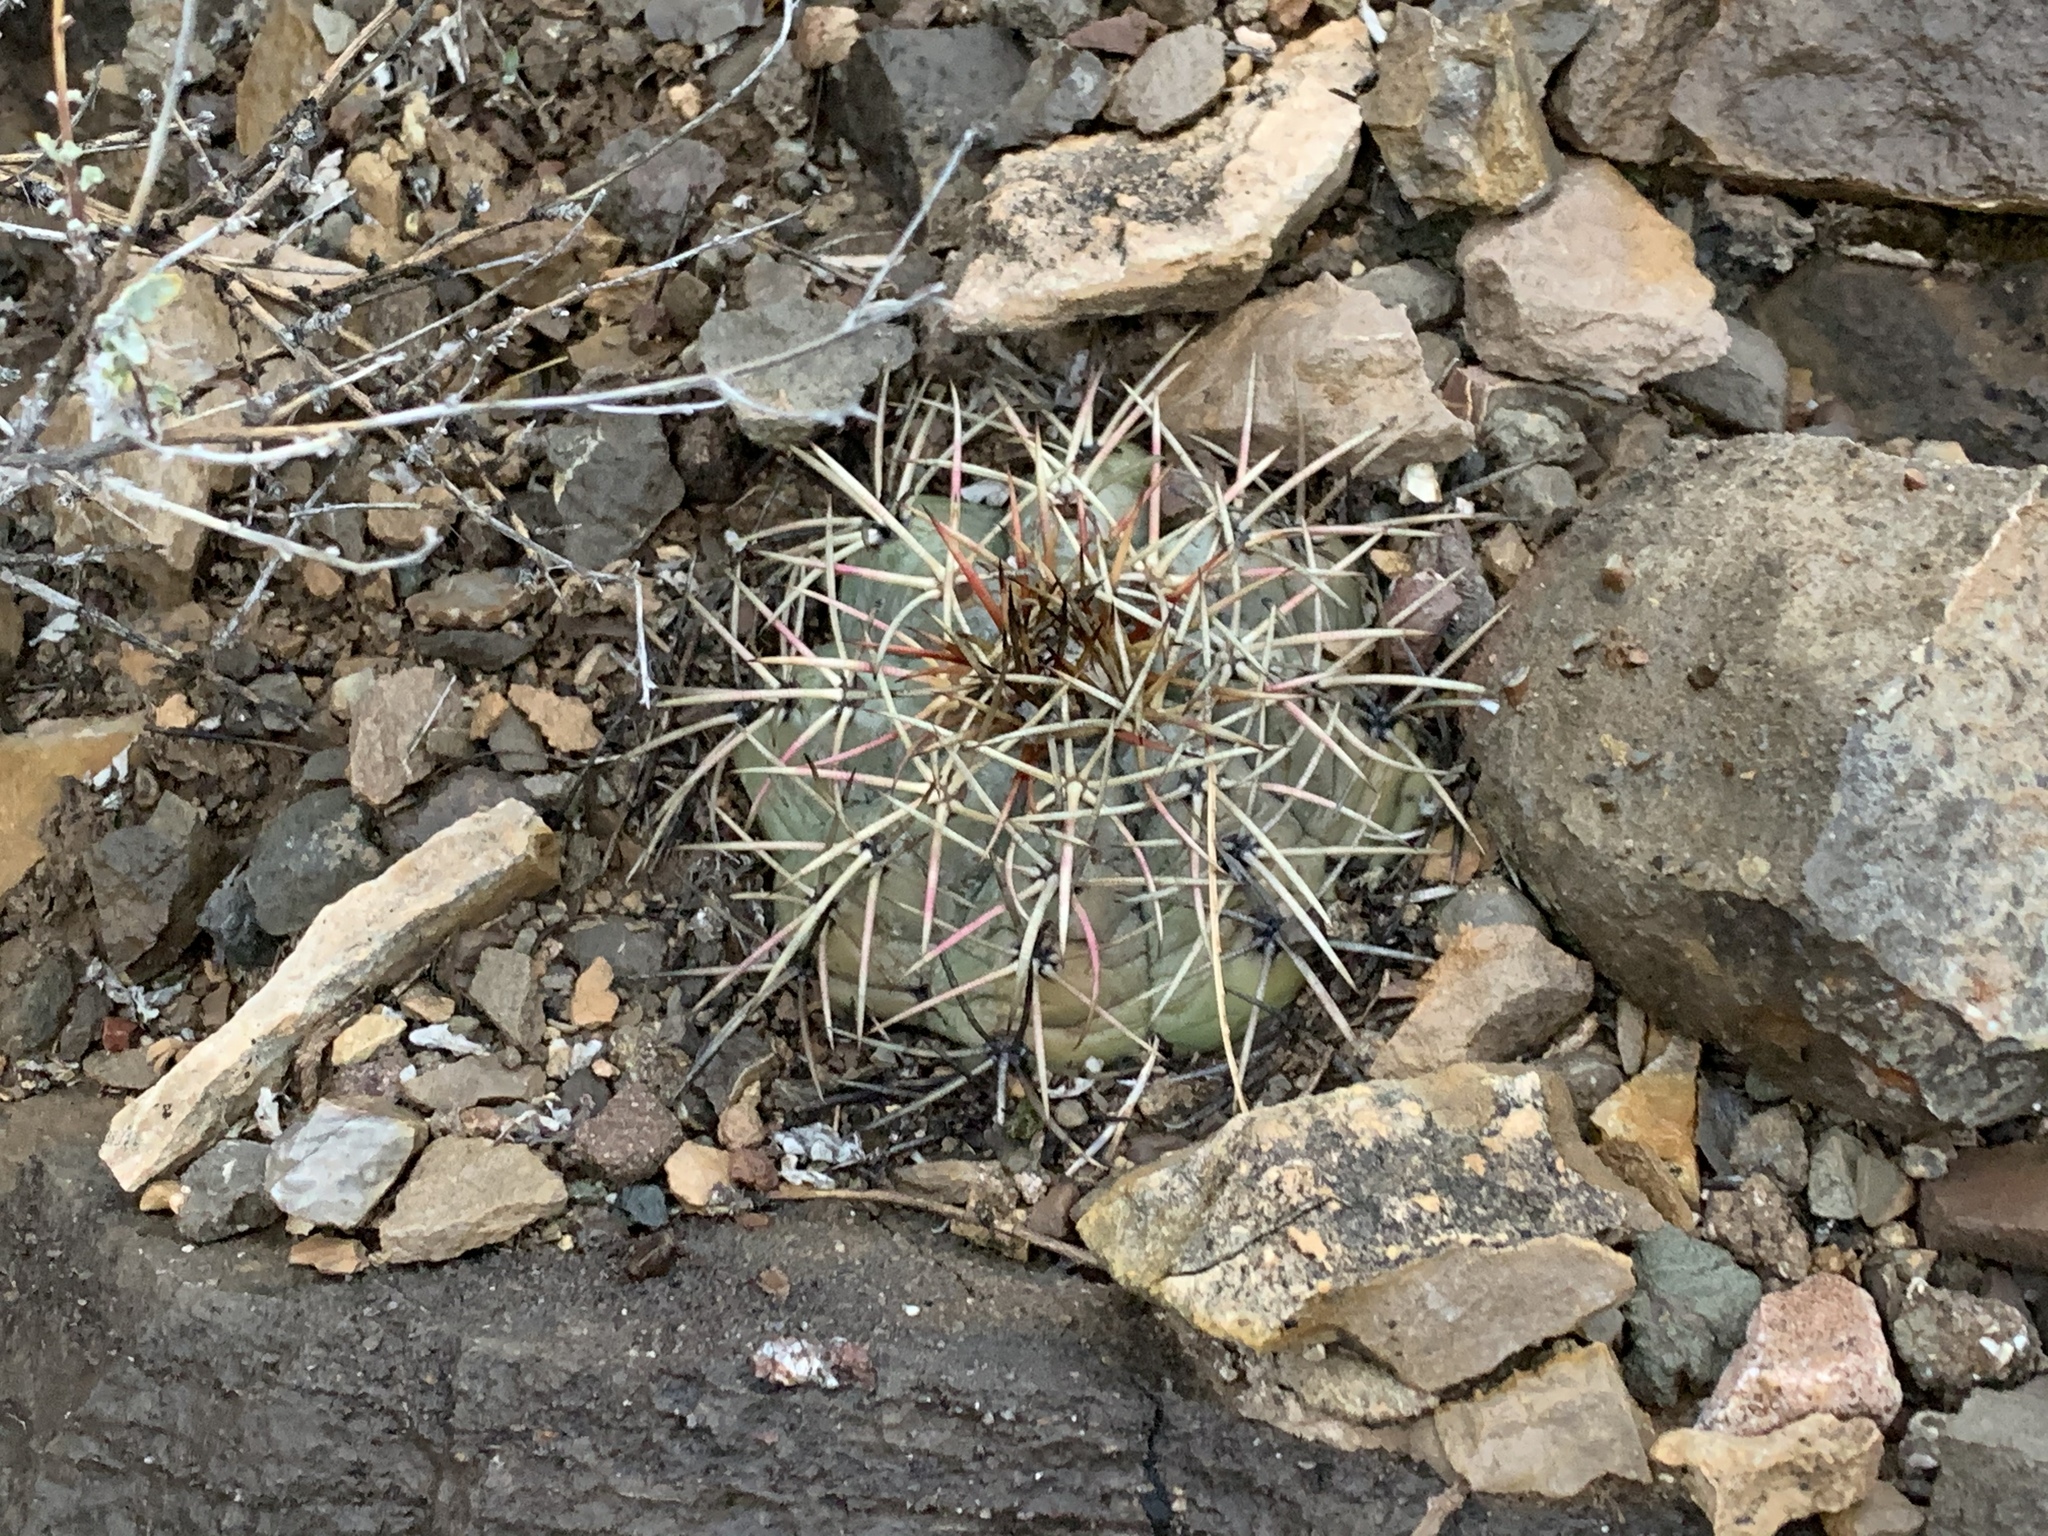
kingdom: Plantae
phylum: Tracheophyta
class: Magnoliopsida
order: Caryophyllales
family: Cactaceae
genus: Echinocactus
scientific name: Echinocactus horizonthalonius
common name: Devilshead
